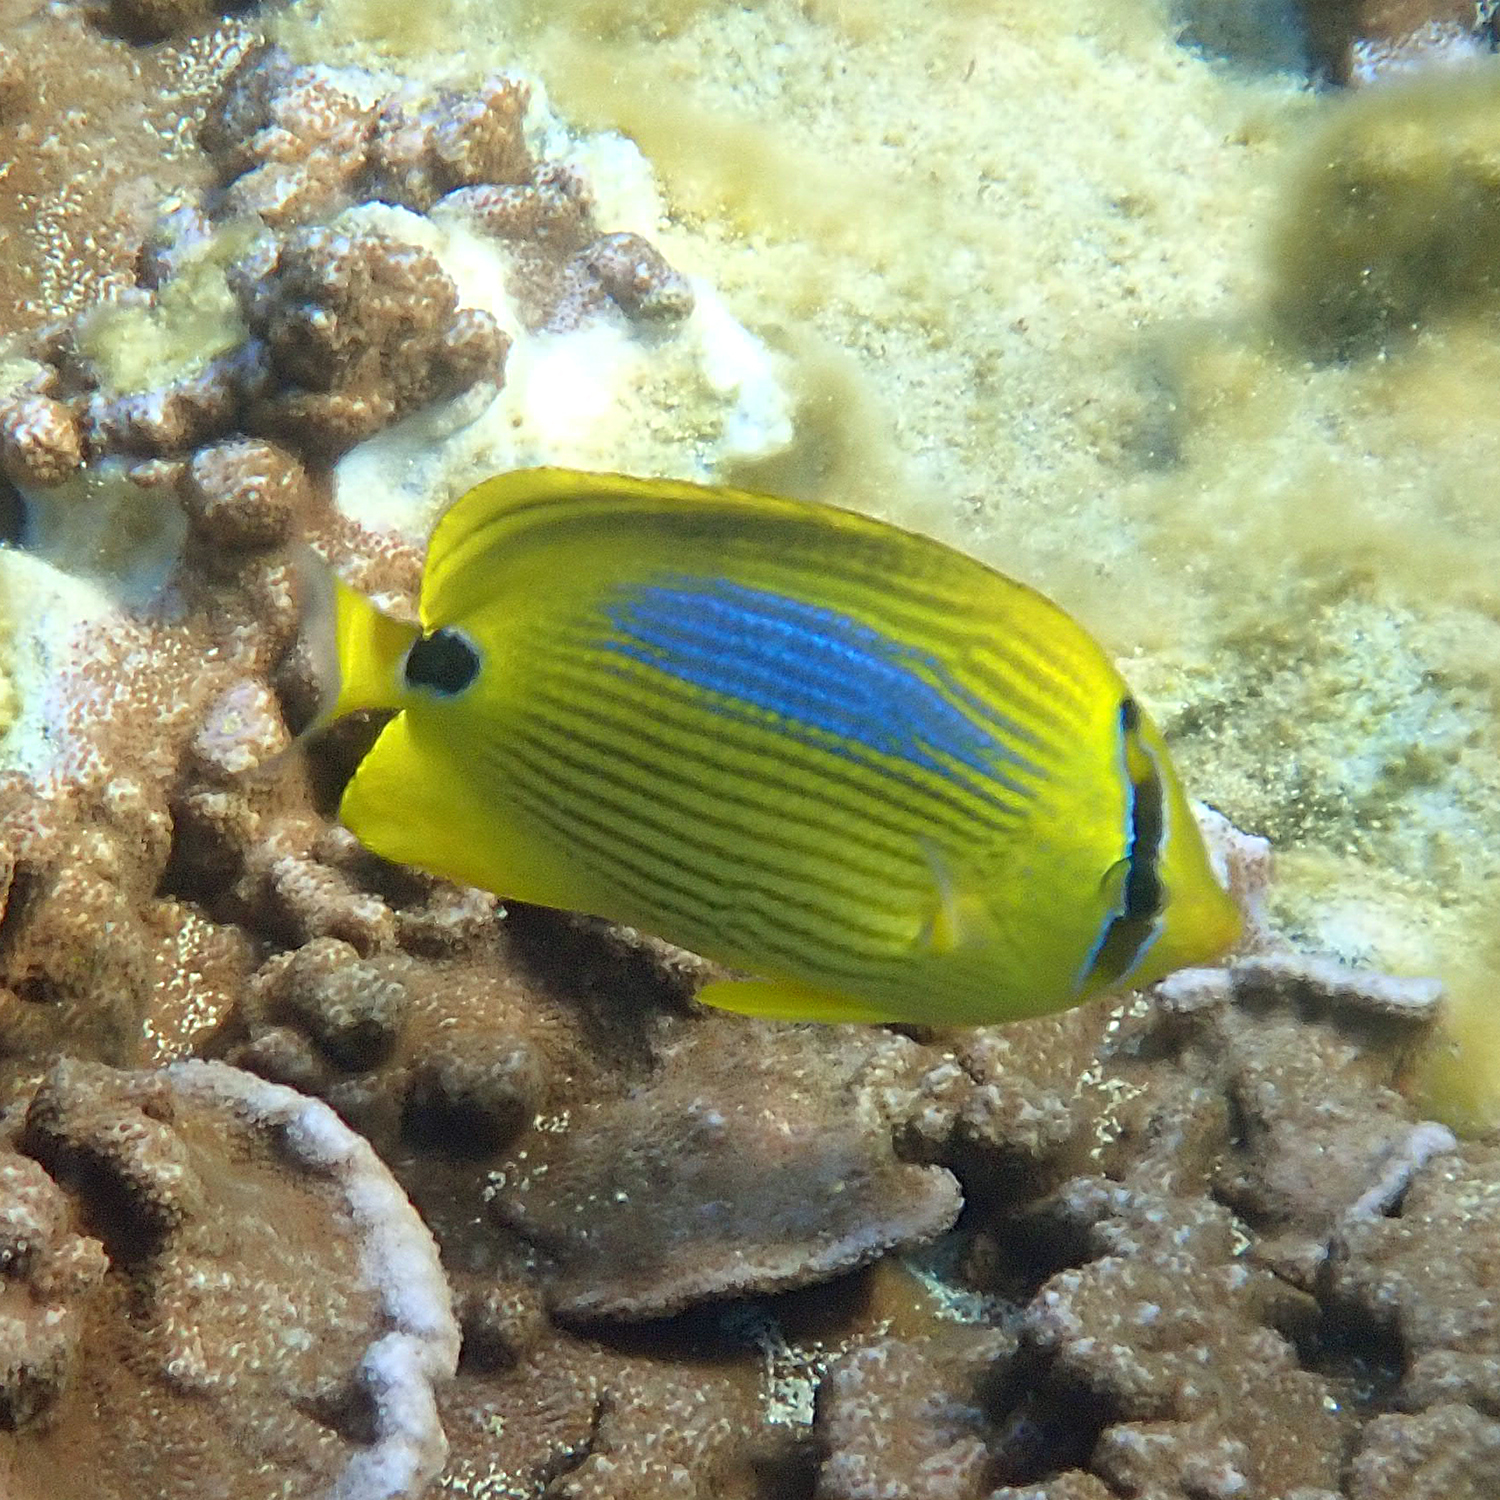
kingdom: Animalia
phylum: Chordata
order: Perciformes
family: Chaetodontidae
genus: Chaetodon
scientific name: Chaetodon plebeius
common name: Bluespot butterflyfish
